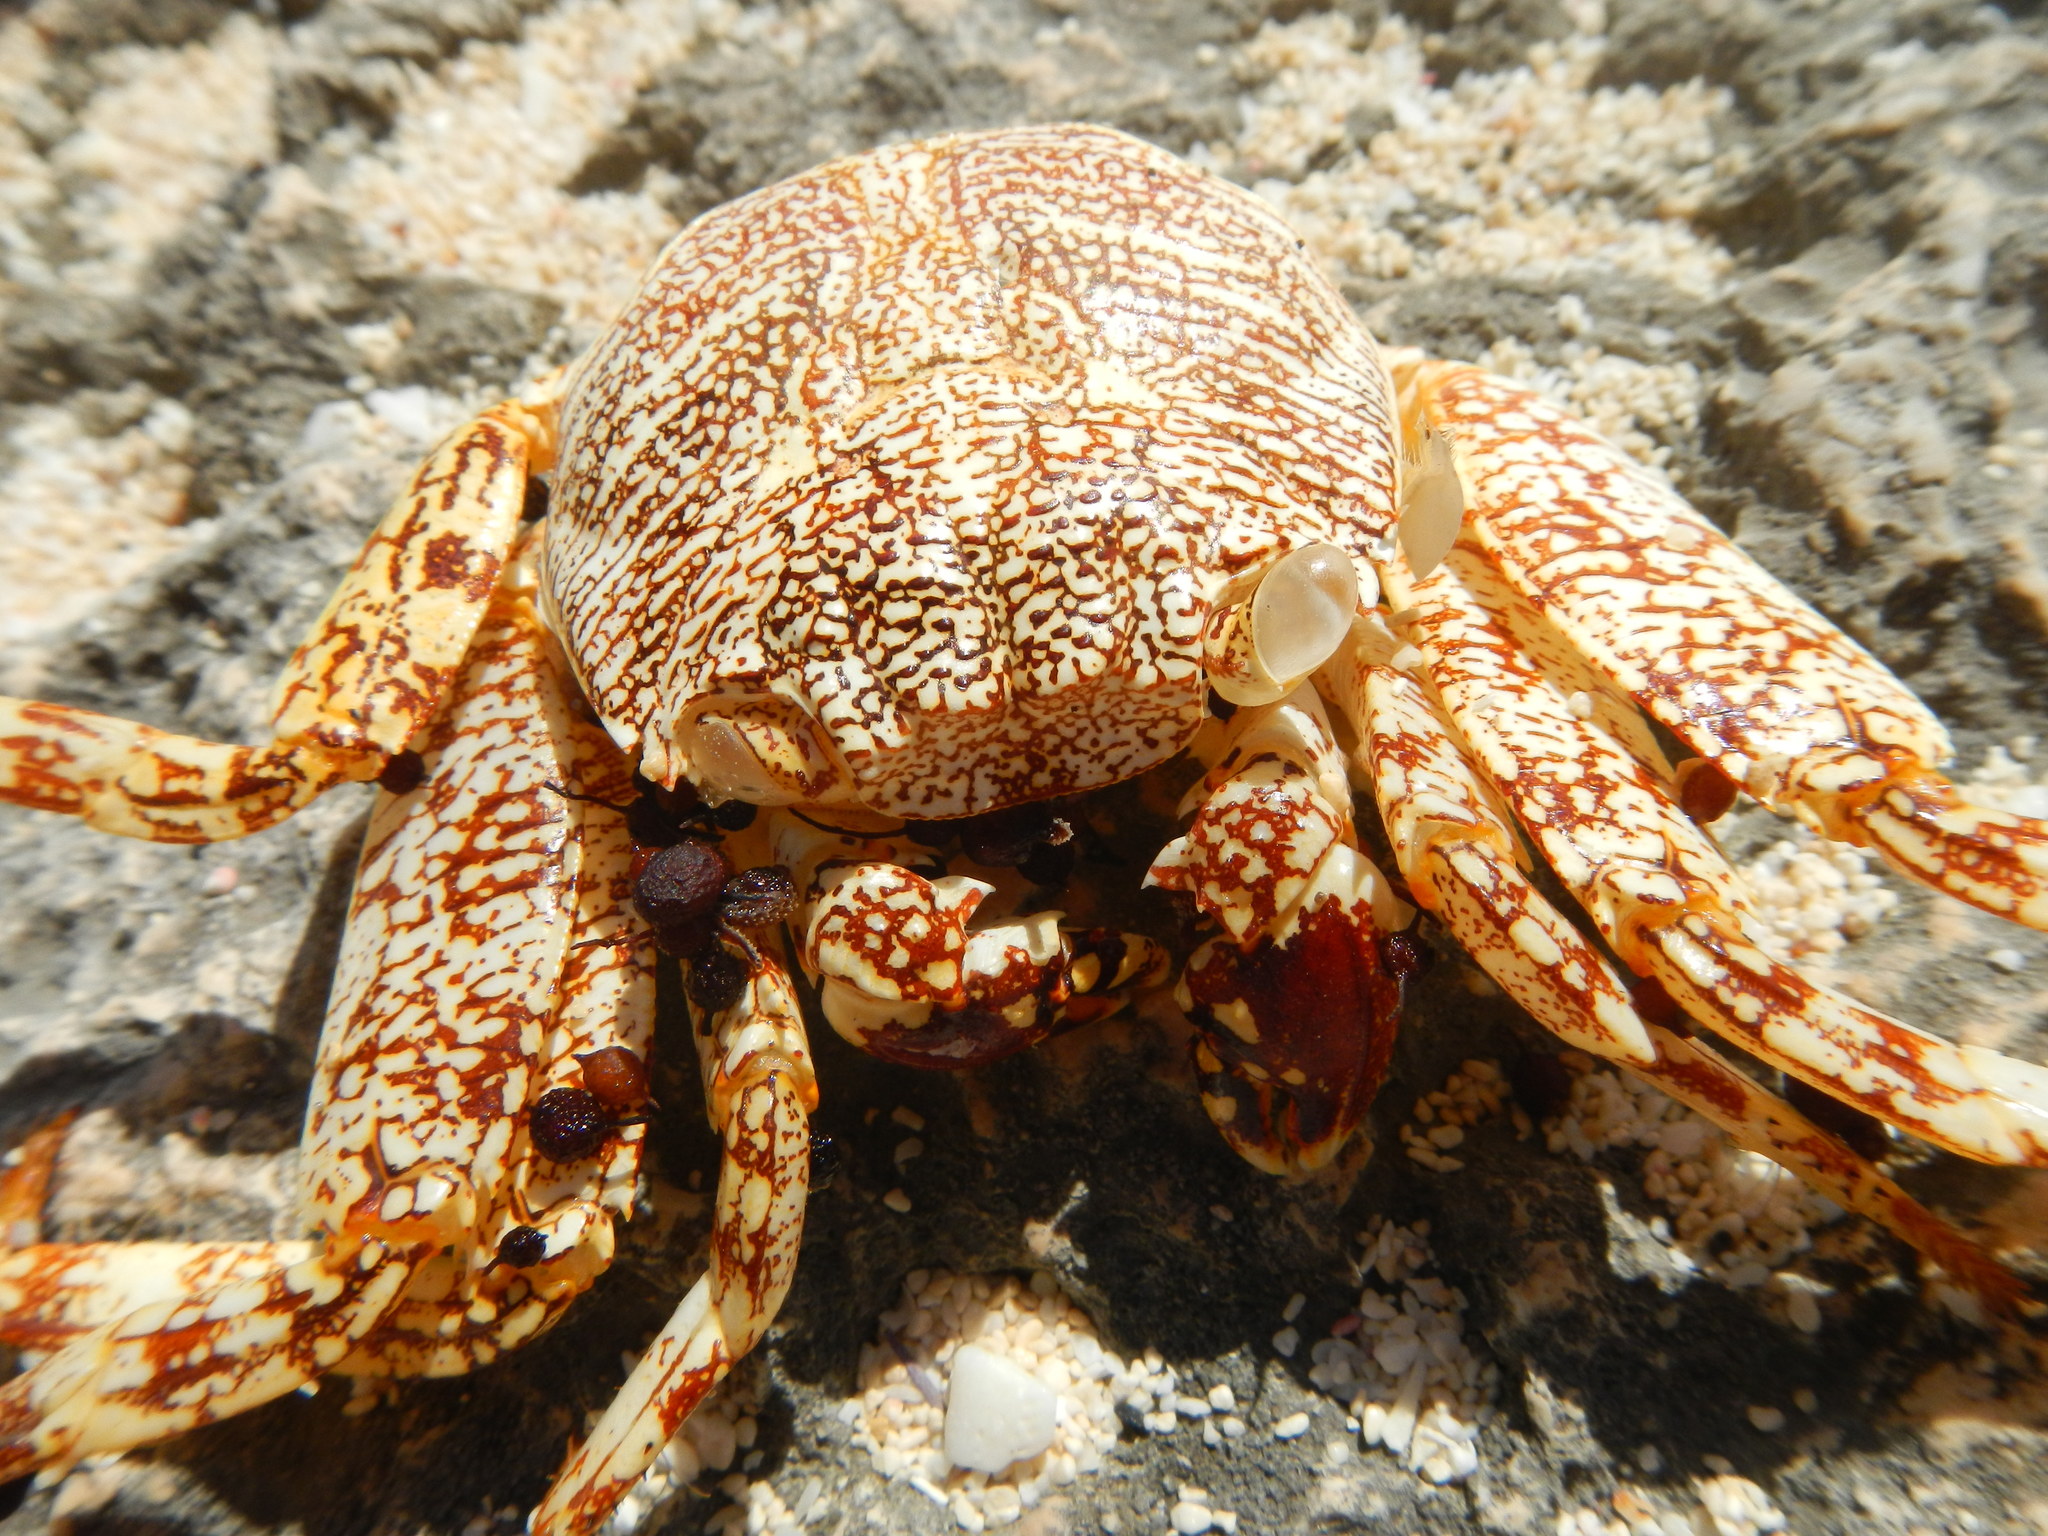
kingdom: Animalia
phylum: Arthropoda
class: Malacostraca
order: Decapoda
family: Grapsidae
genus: Grapsus
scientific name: Grapsus grapsus
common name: Sally lightfoot
